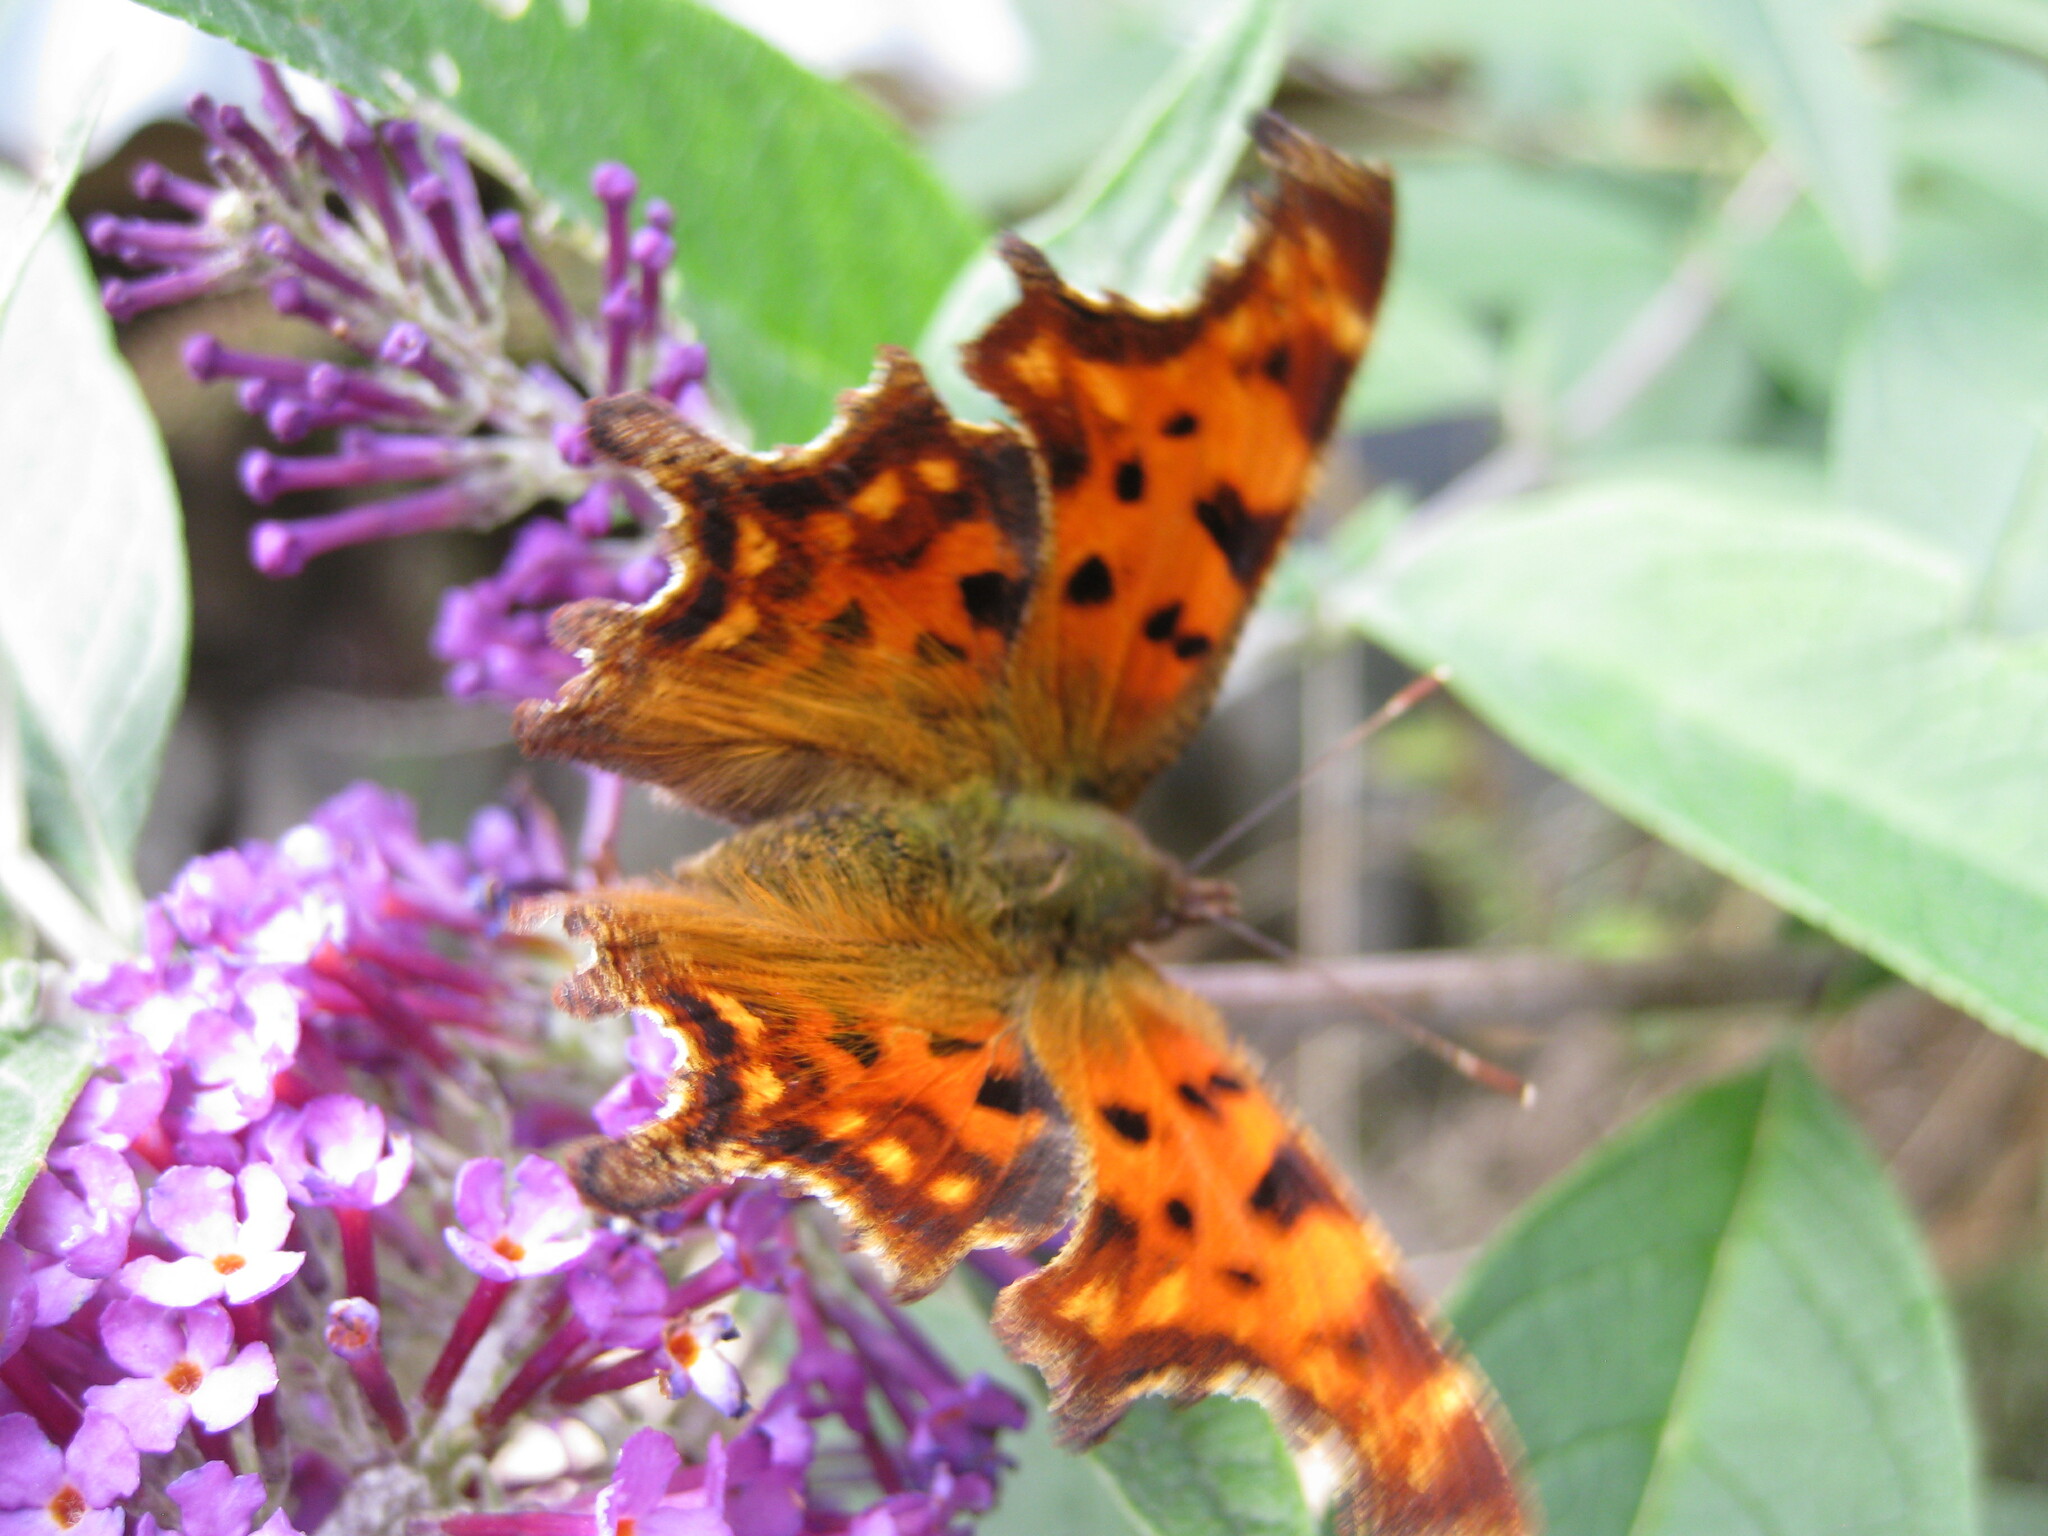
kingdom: Animalia
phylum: Arthropoda
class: Insecta
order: Lepidoptera
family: Nymphalidae
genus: Polygonia
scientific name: Polygonia c-album
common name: Comma
